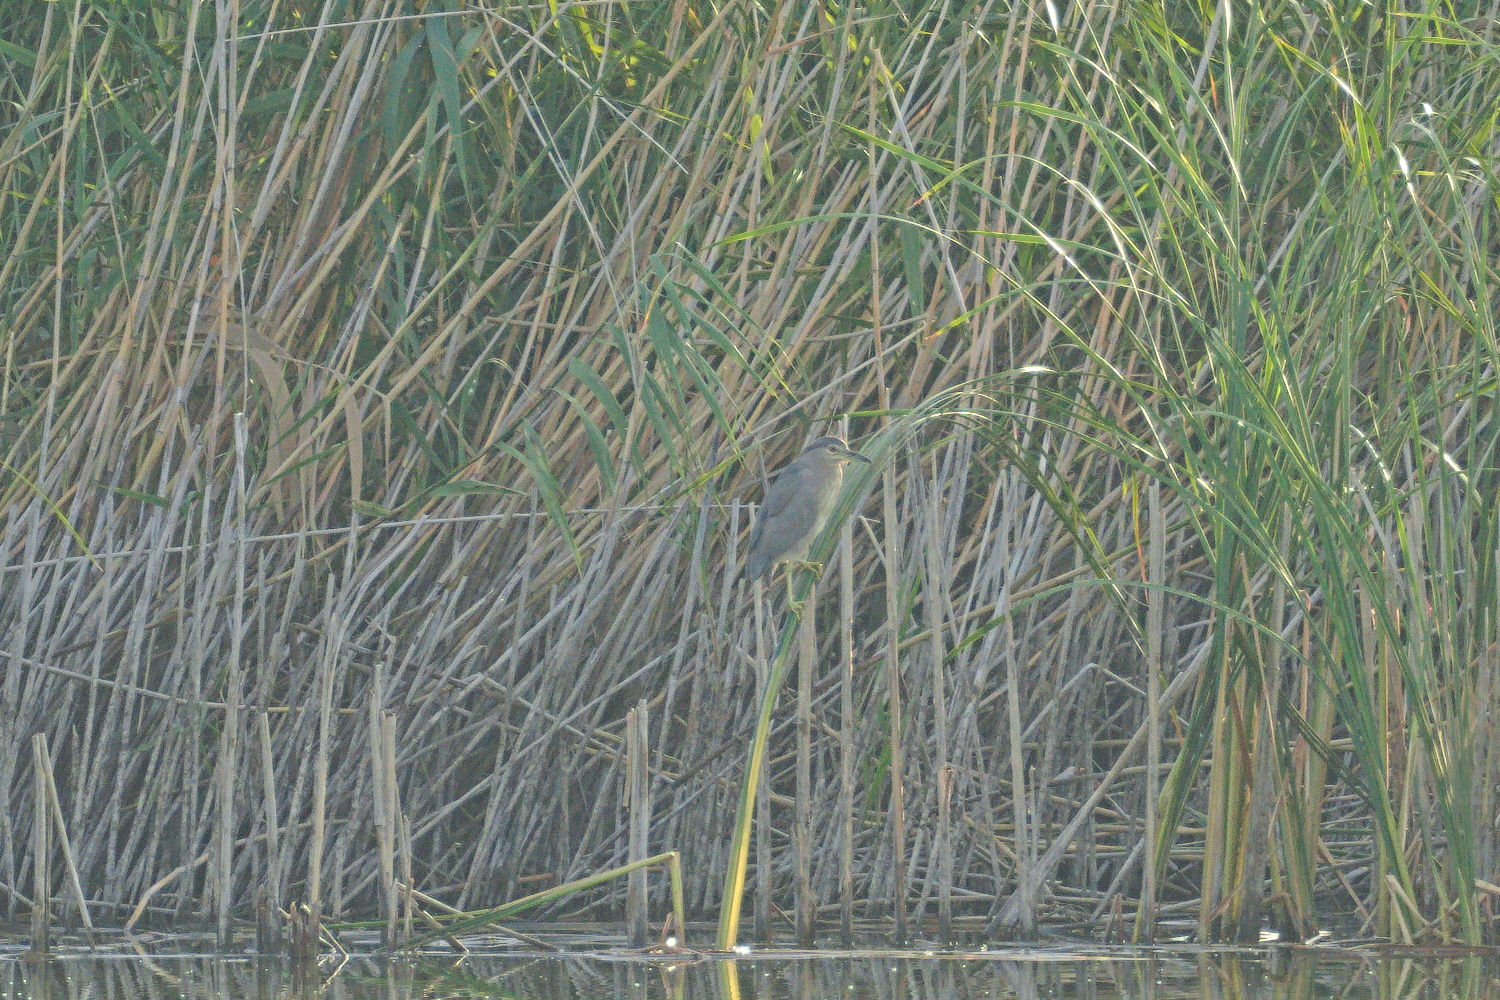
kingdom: Animalia
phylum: Chordata
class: Aves
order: Pelecaniformes
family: Ardeidae
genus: Nycticorax
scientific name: Nycticorax nycticorax
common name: Black-crowned night heron
